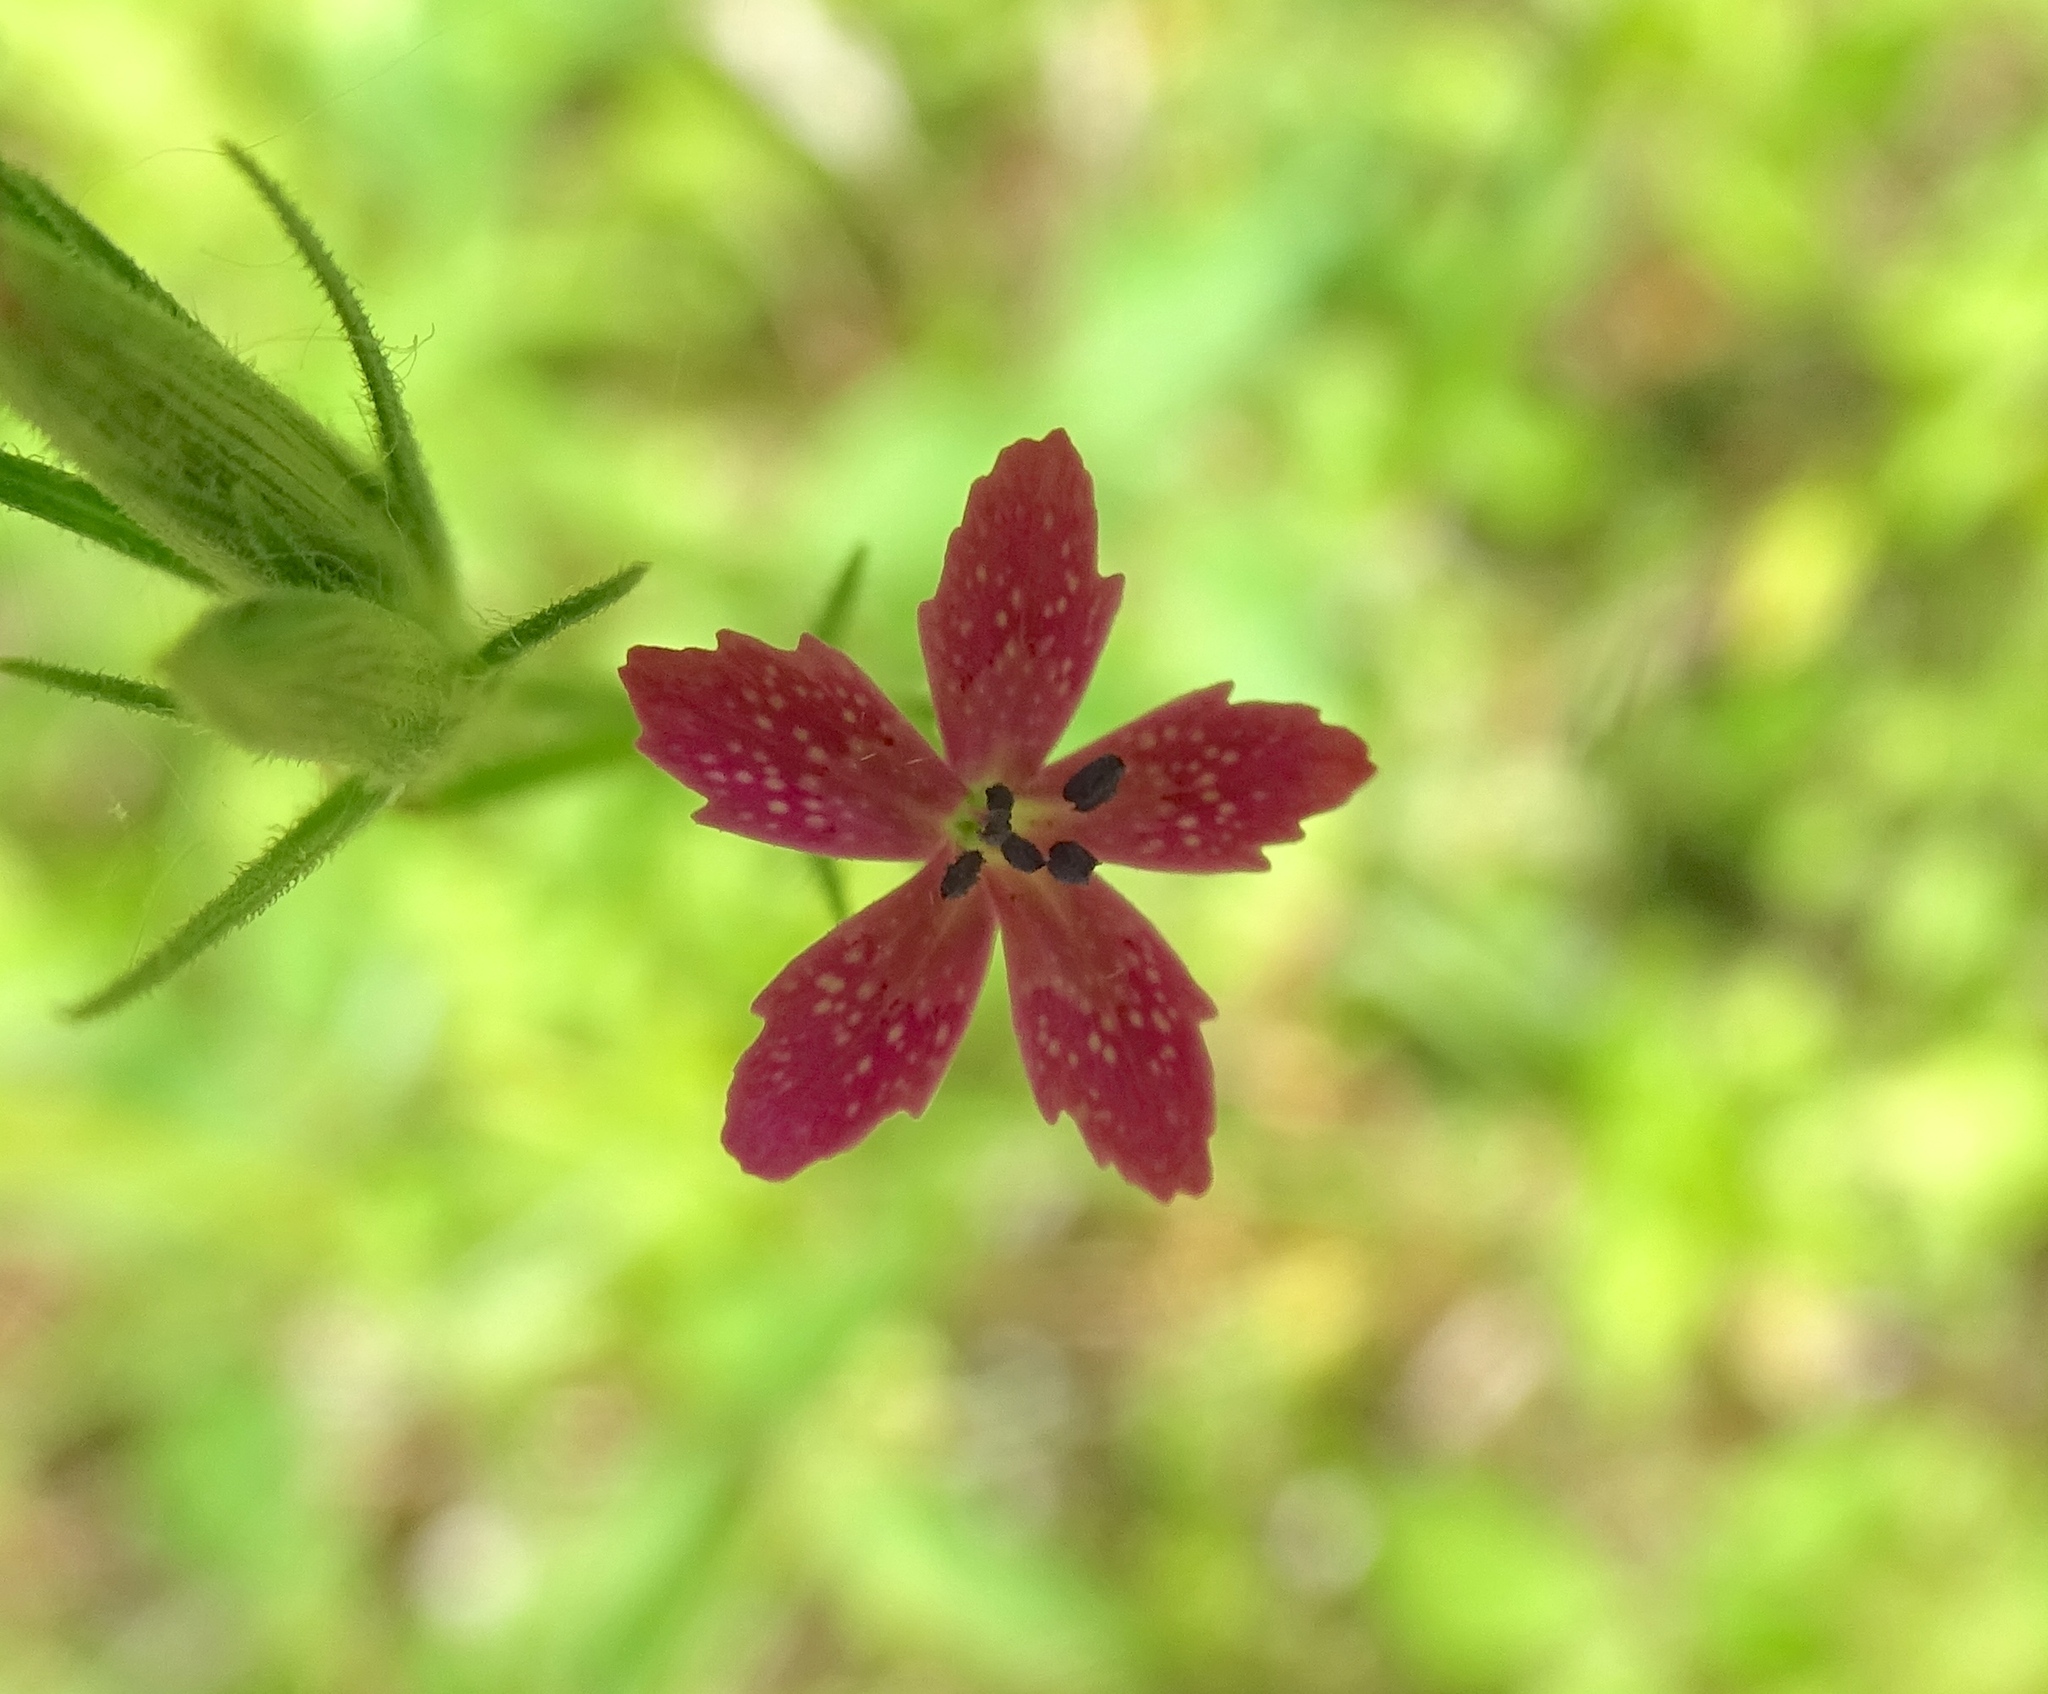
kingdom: Plantae
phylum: Tracheophyta
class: Magnoliopsida
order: Caryophyllales
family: Caryophyllaceae
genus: Dianthus
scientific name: Dianthus armeria
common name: Deptford pink
